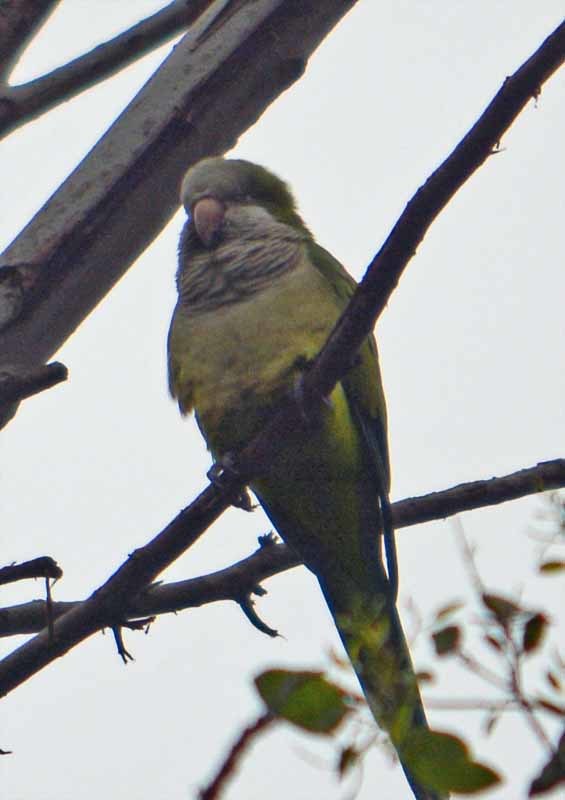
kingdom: Animalia
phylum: Chordata
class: Aves
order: Psittaciformes
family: Psittacidae
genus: Myiopsitta
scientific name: Myiopsitta monachus
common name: Monk parakeet
